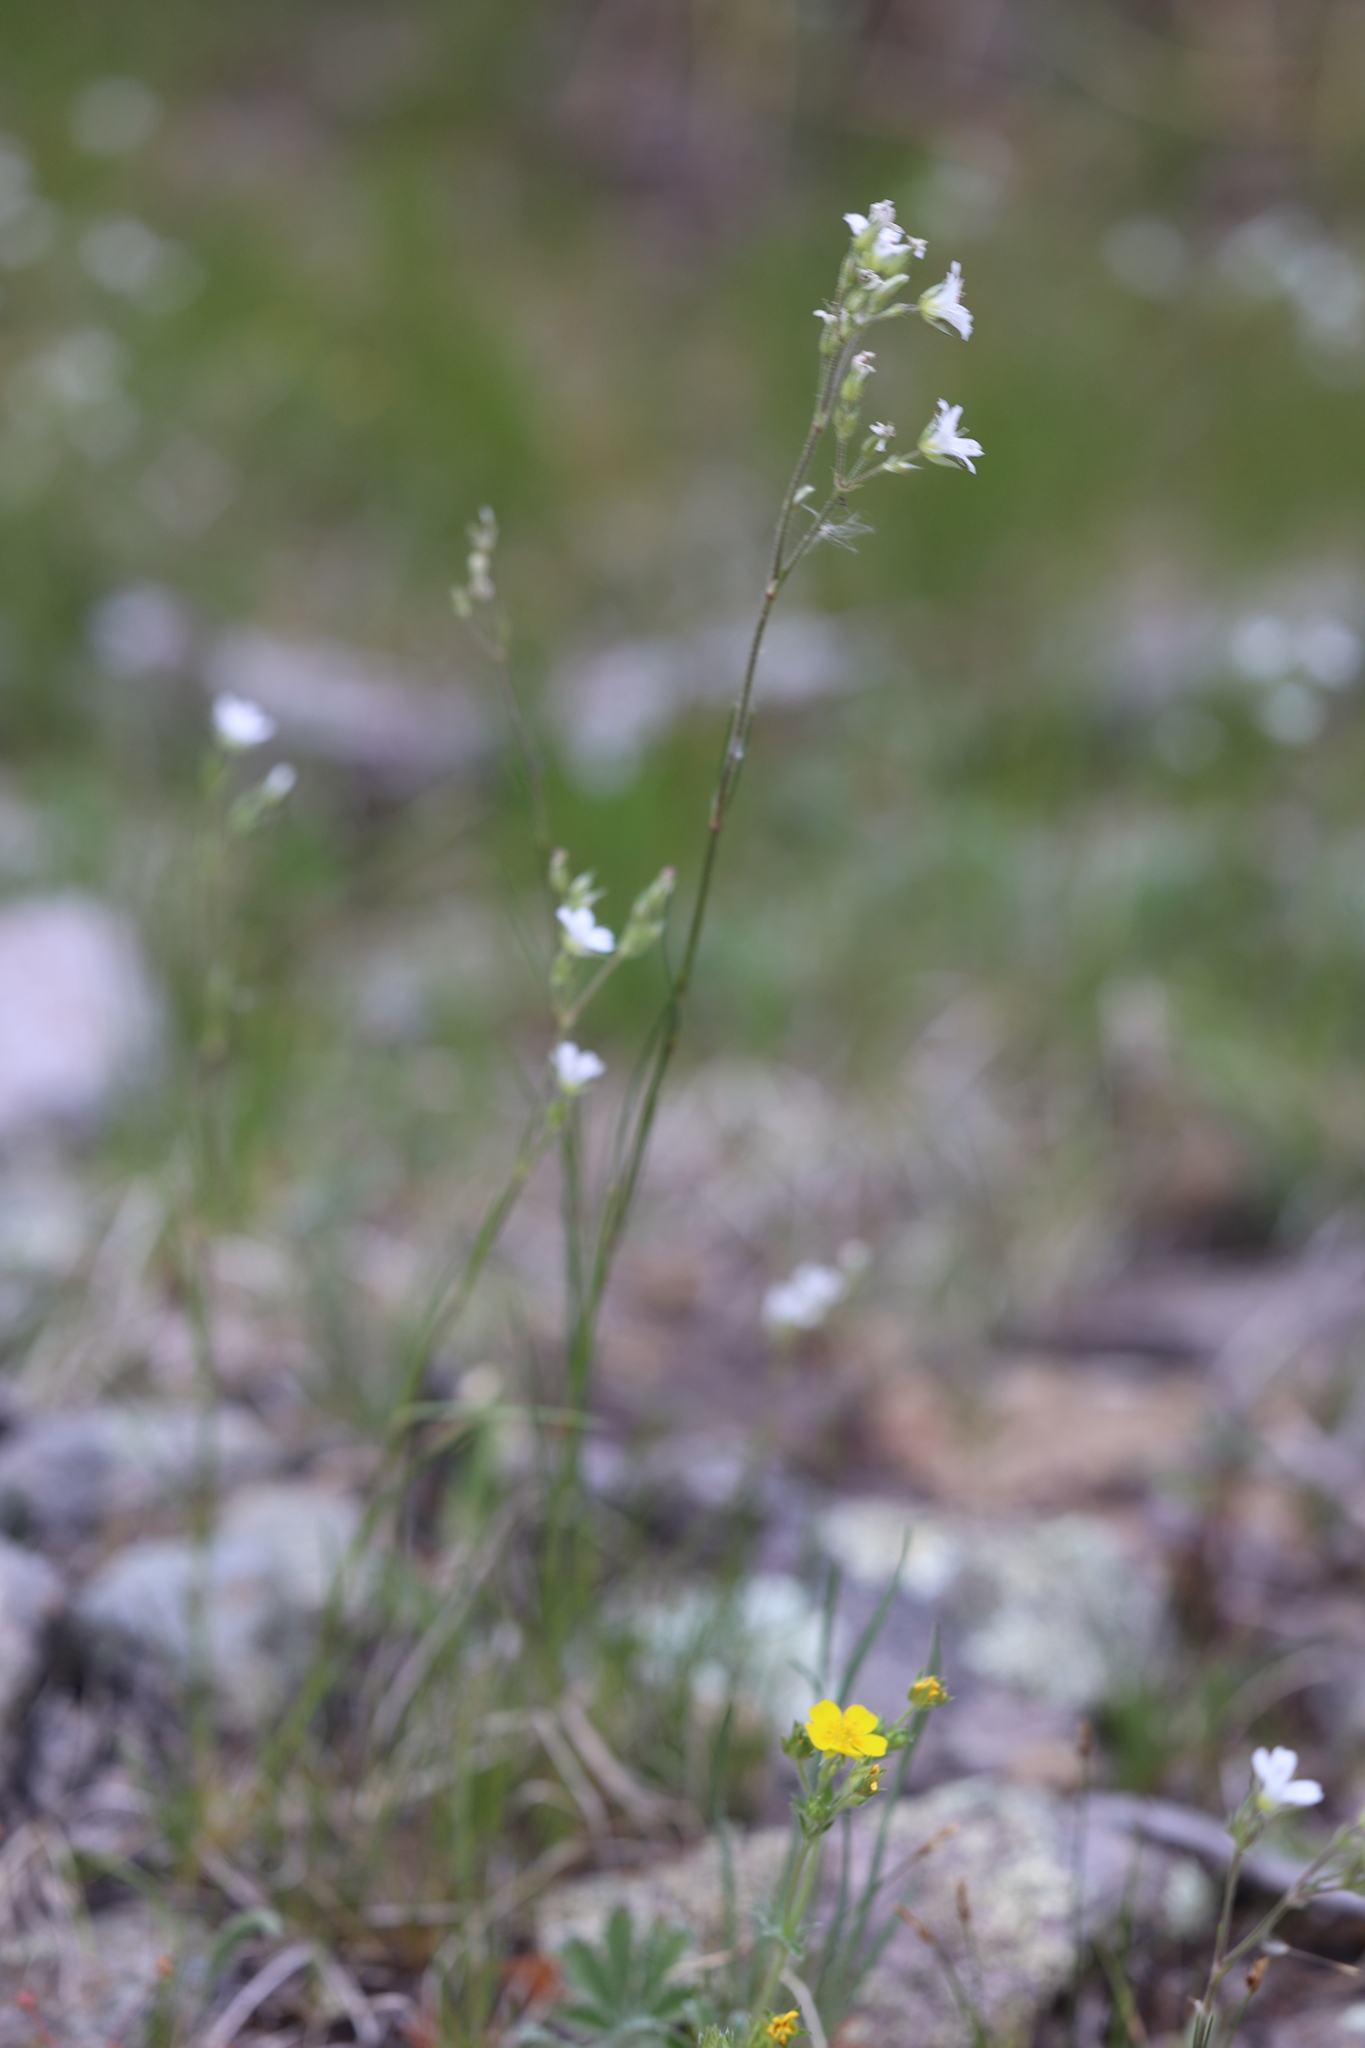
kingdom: Plantae
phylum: Tracheophyta
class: Magnoliopsida
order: Caryophyllales
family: Caryophyllaceae
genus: Eremogone
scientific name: Eremogone fendleri
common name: Fendler's sandwort
